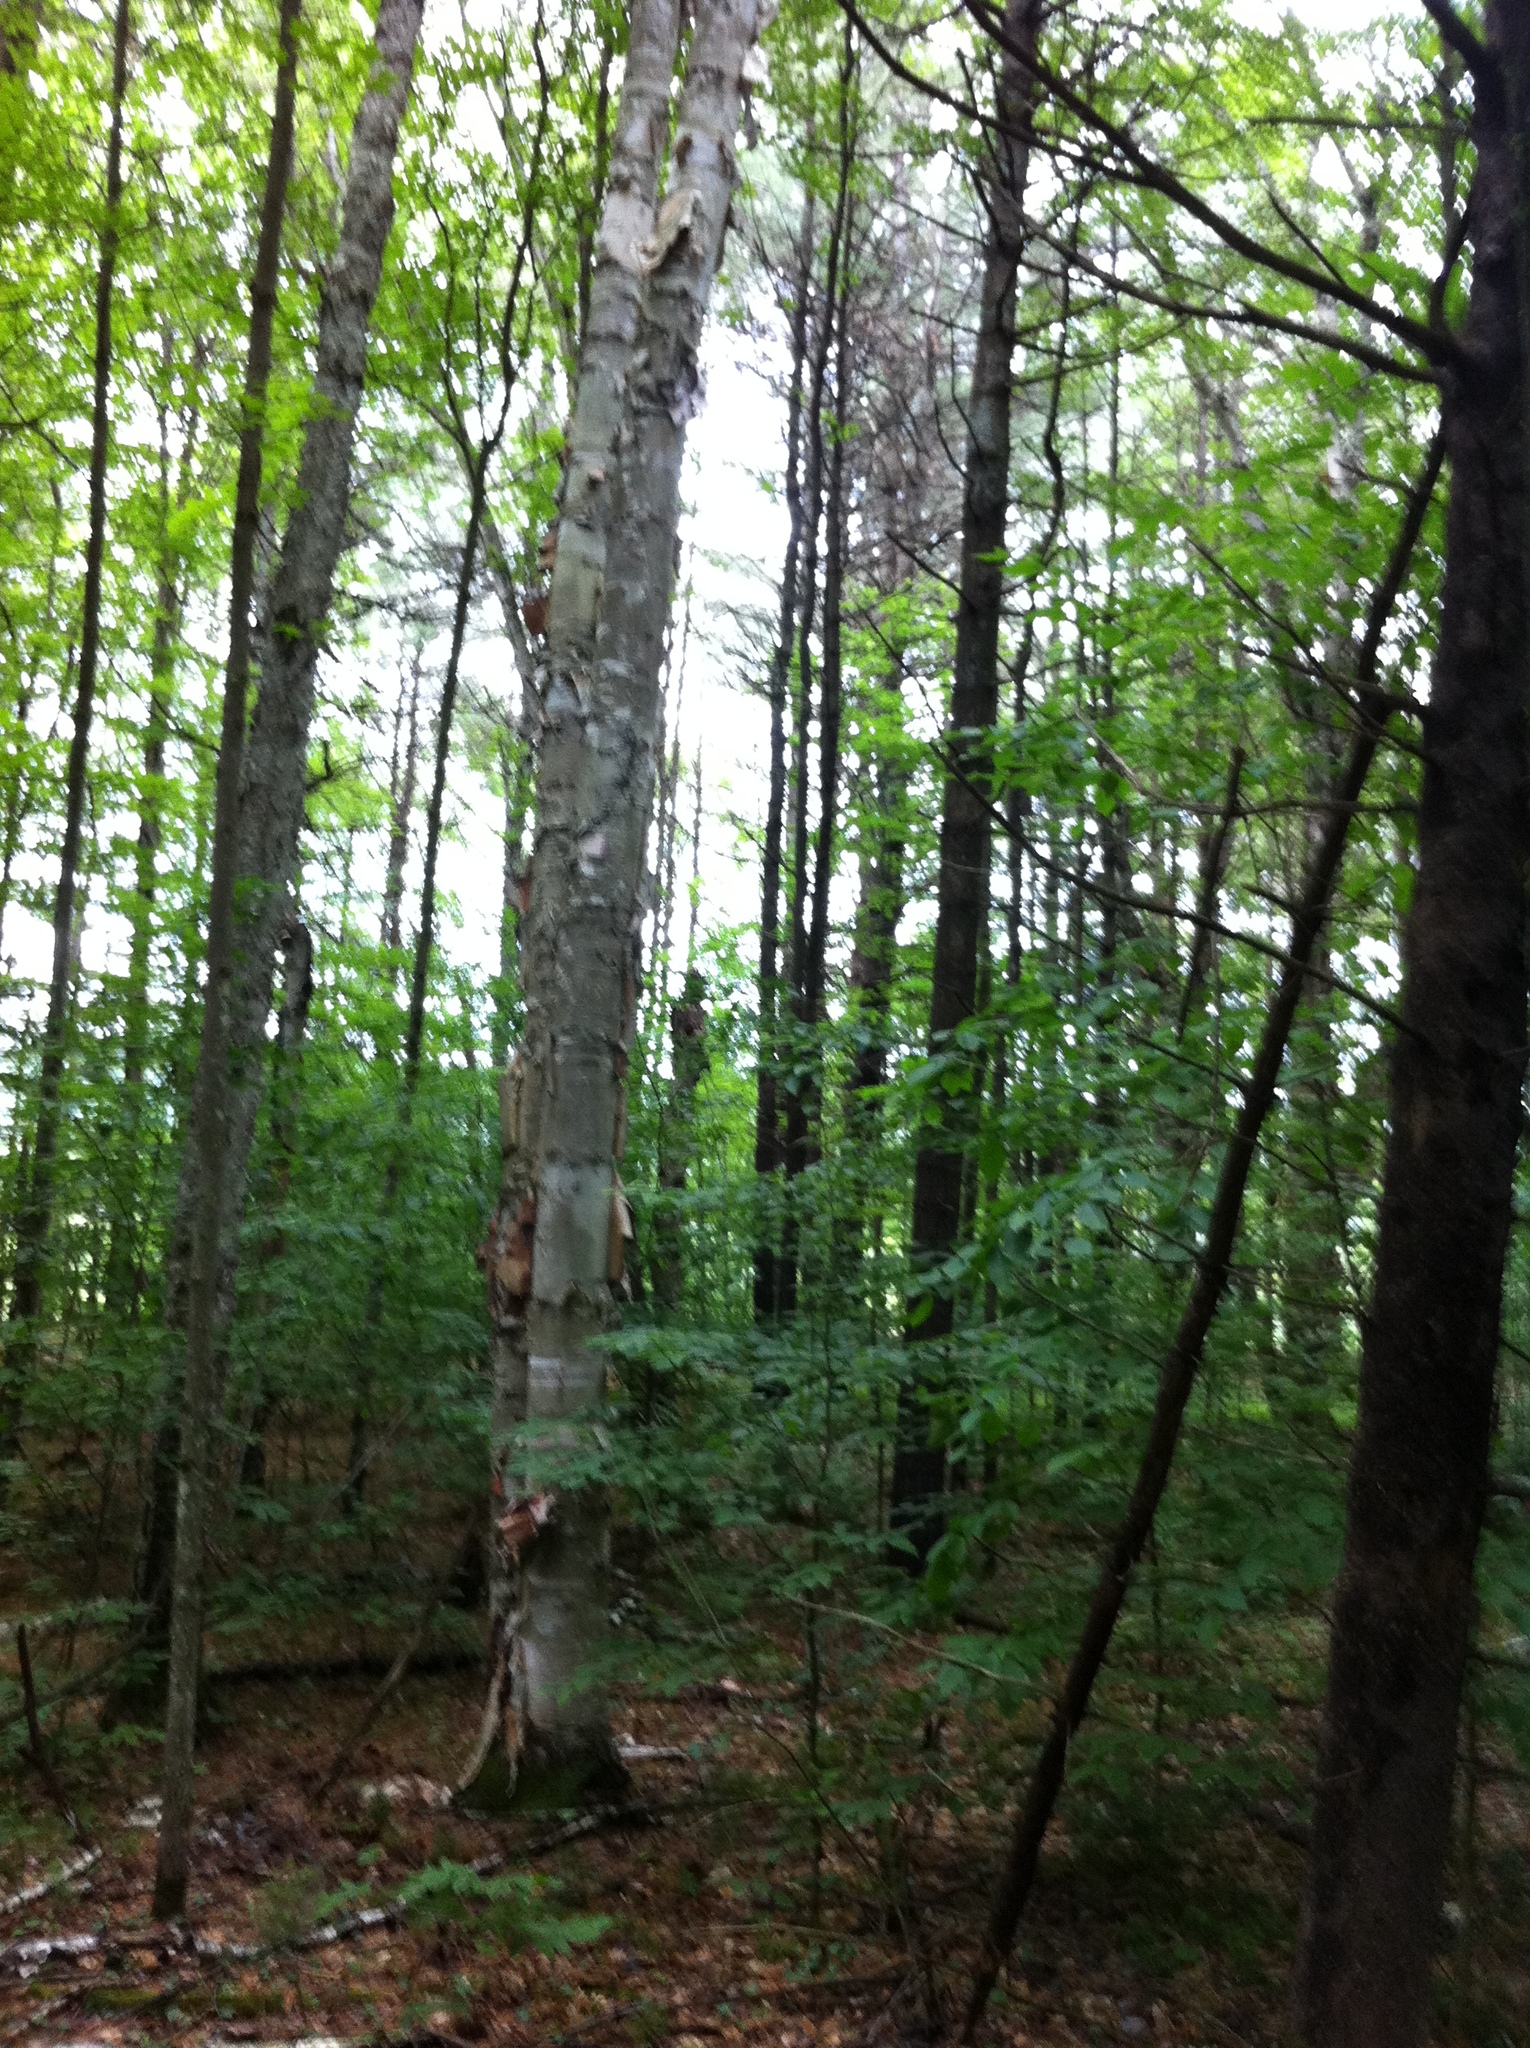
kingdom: Plantae
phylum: Tracheophyta
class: Magnoliopsida
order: Fagales
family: Betulaceae
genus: Betula
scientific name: Betula papyrifera
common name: Paper birch
